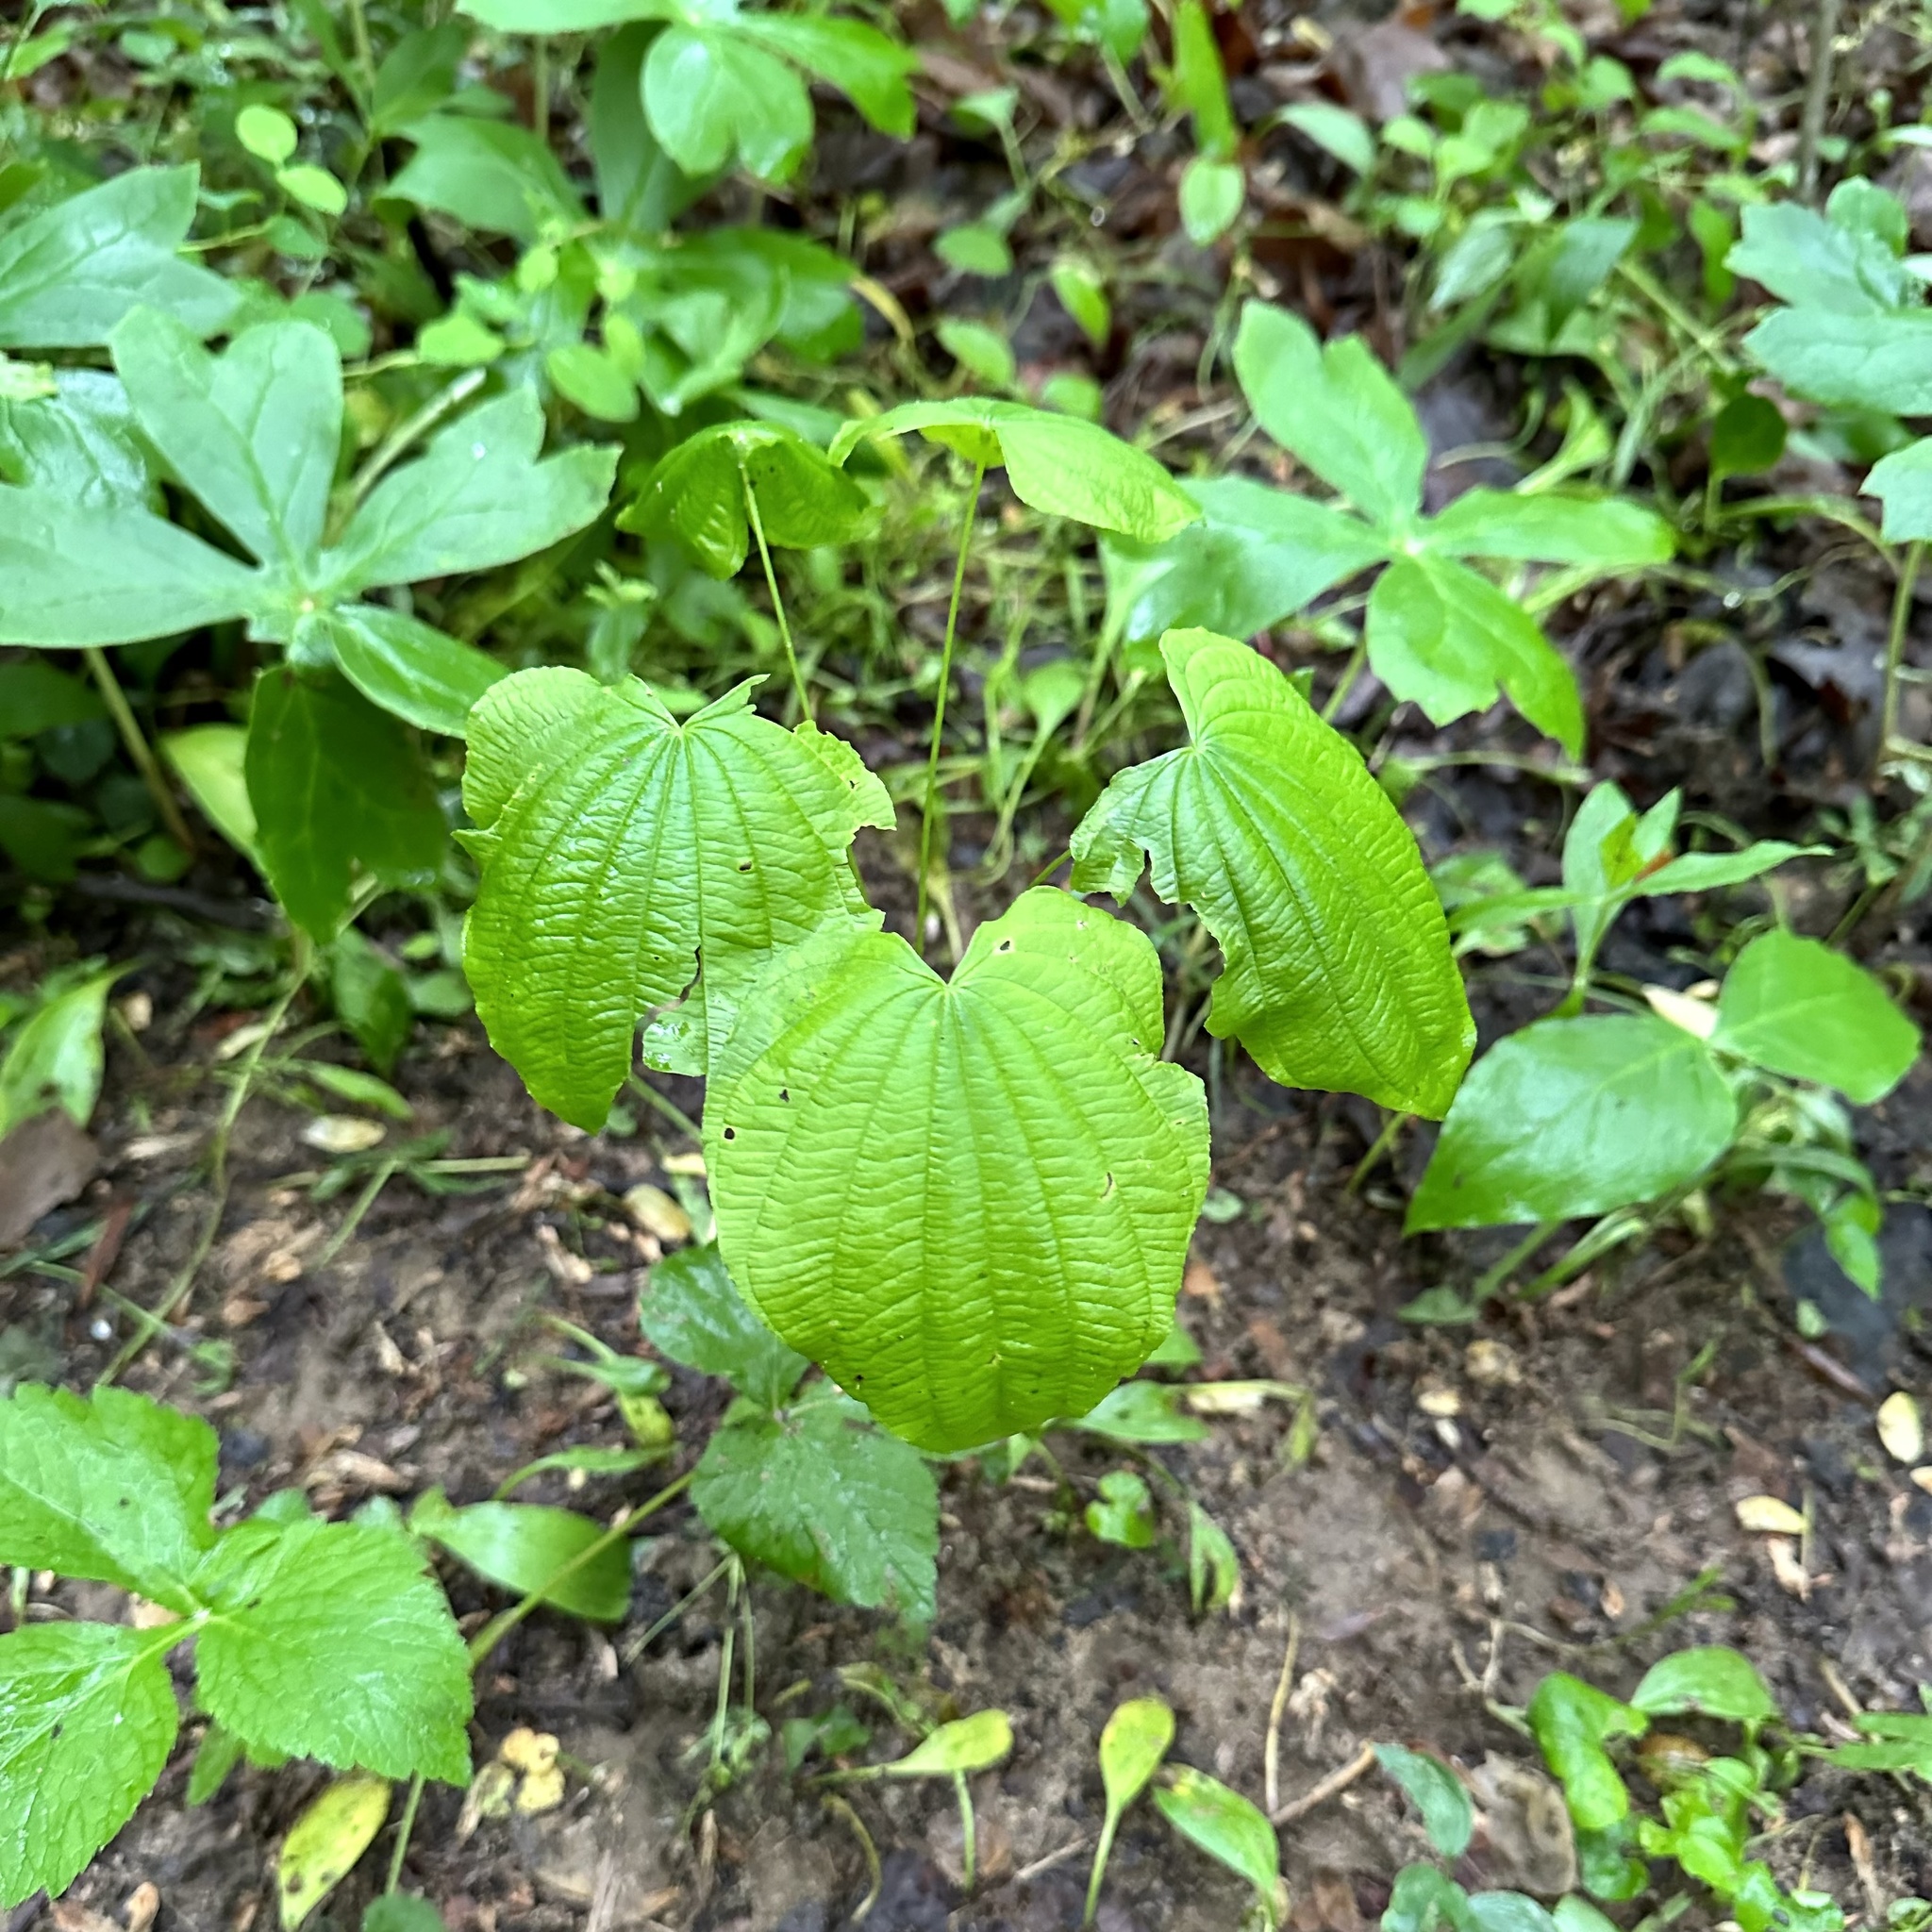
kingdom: Plantae
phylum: Tracheophyta
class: Liliopsida
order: Dioscoreales
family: Dioscoreaceae
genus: Dioscorea
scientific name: Dioscorea villosa
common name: Wild yam
